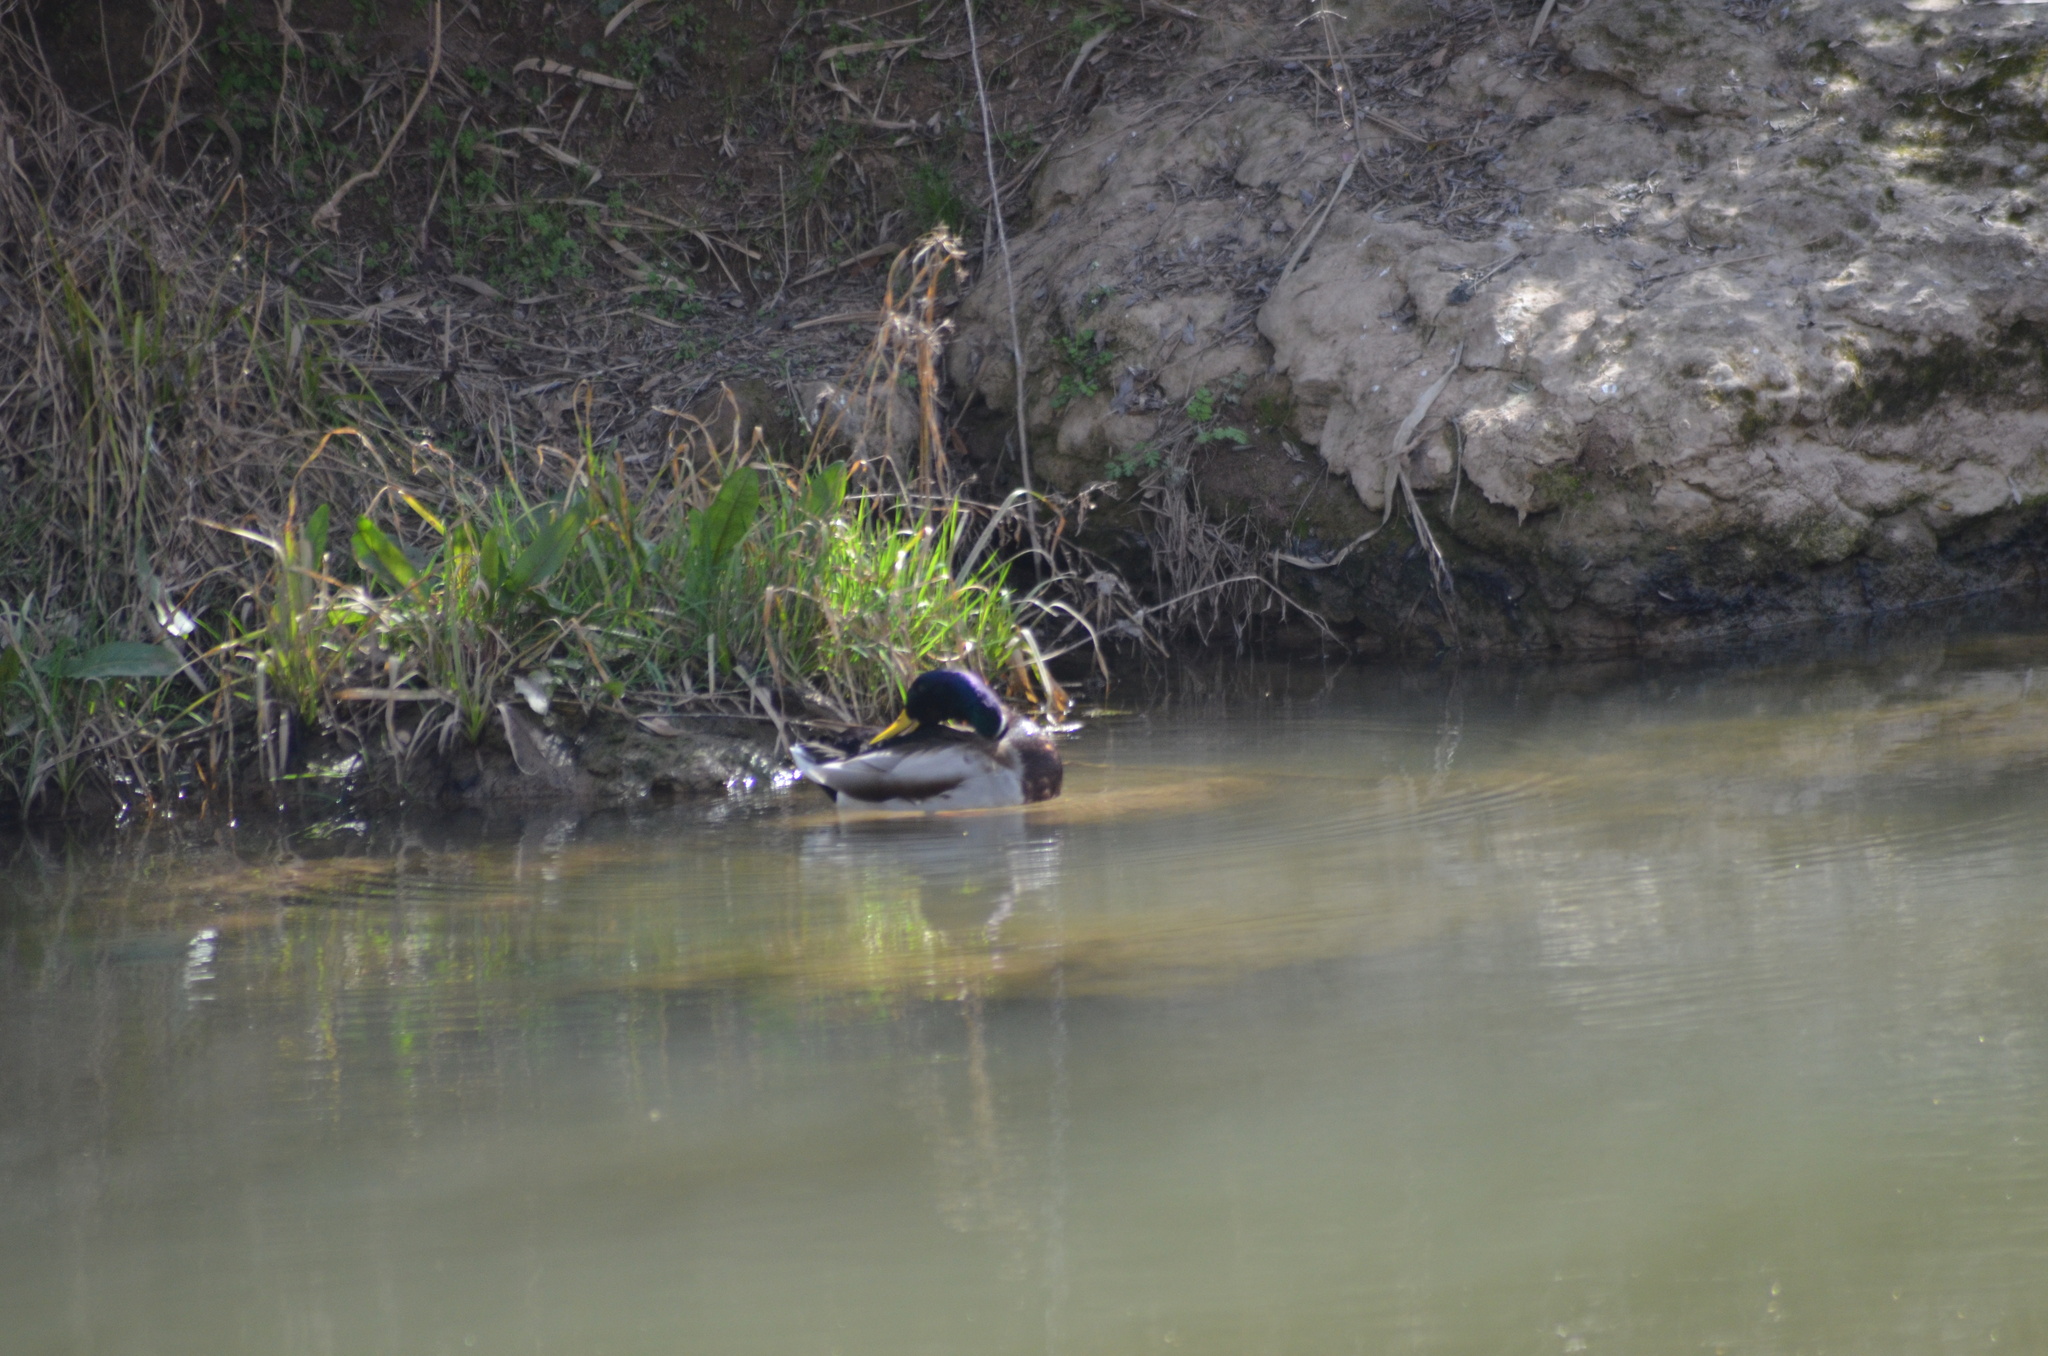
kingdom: Animalia
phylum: Chordata
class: Aves
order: Anseriformes
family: Anatidae
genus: Anas
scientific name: Anas platyrhynchos
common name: Mallard
